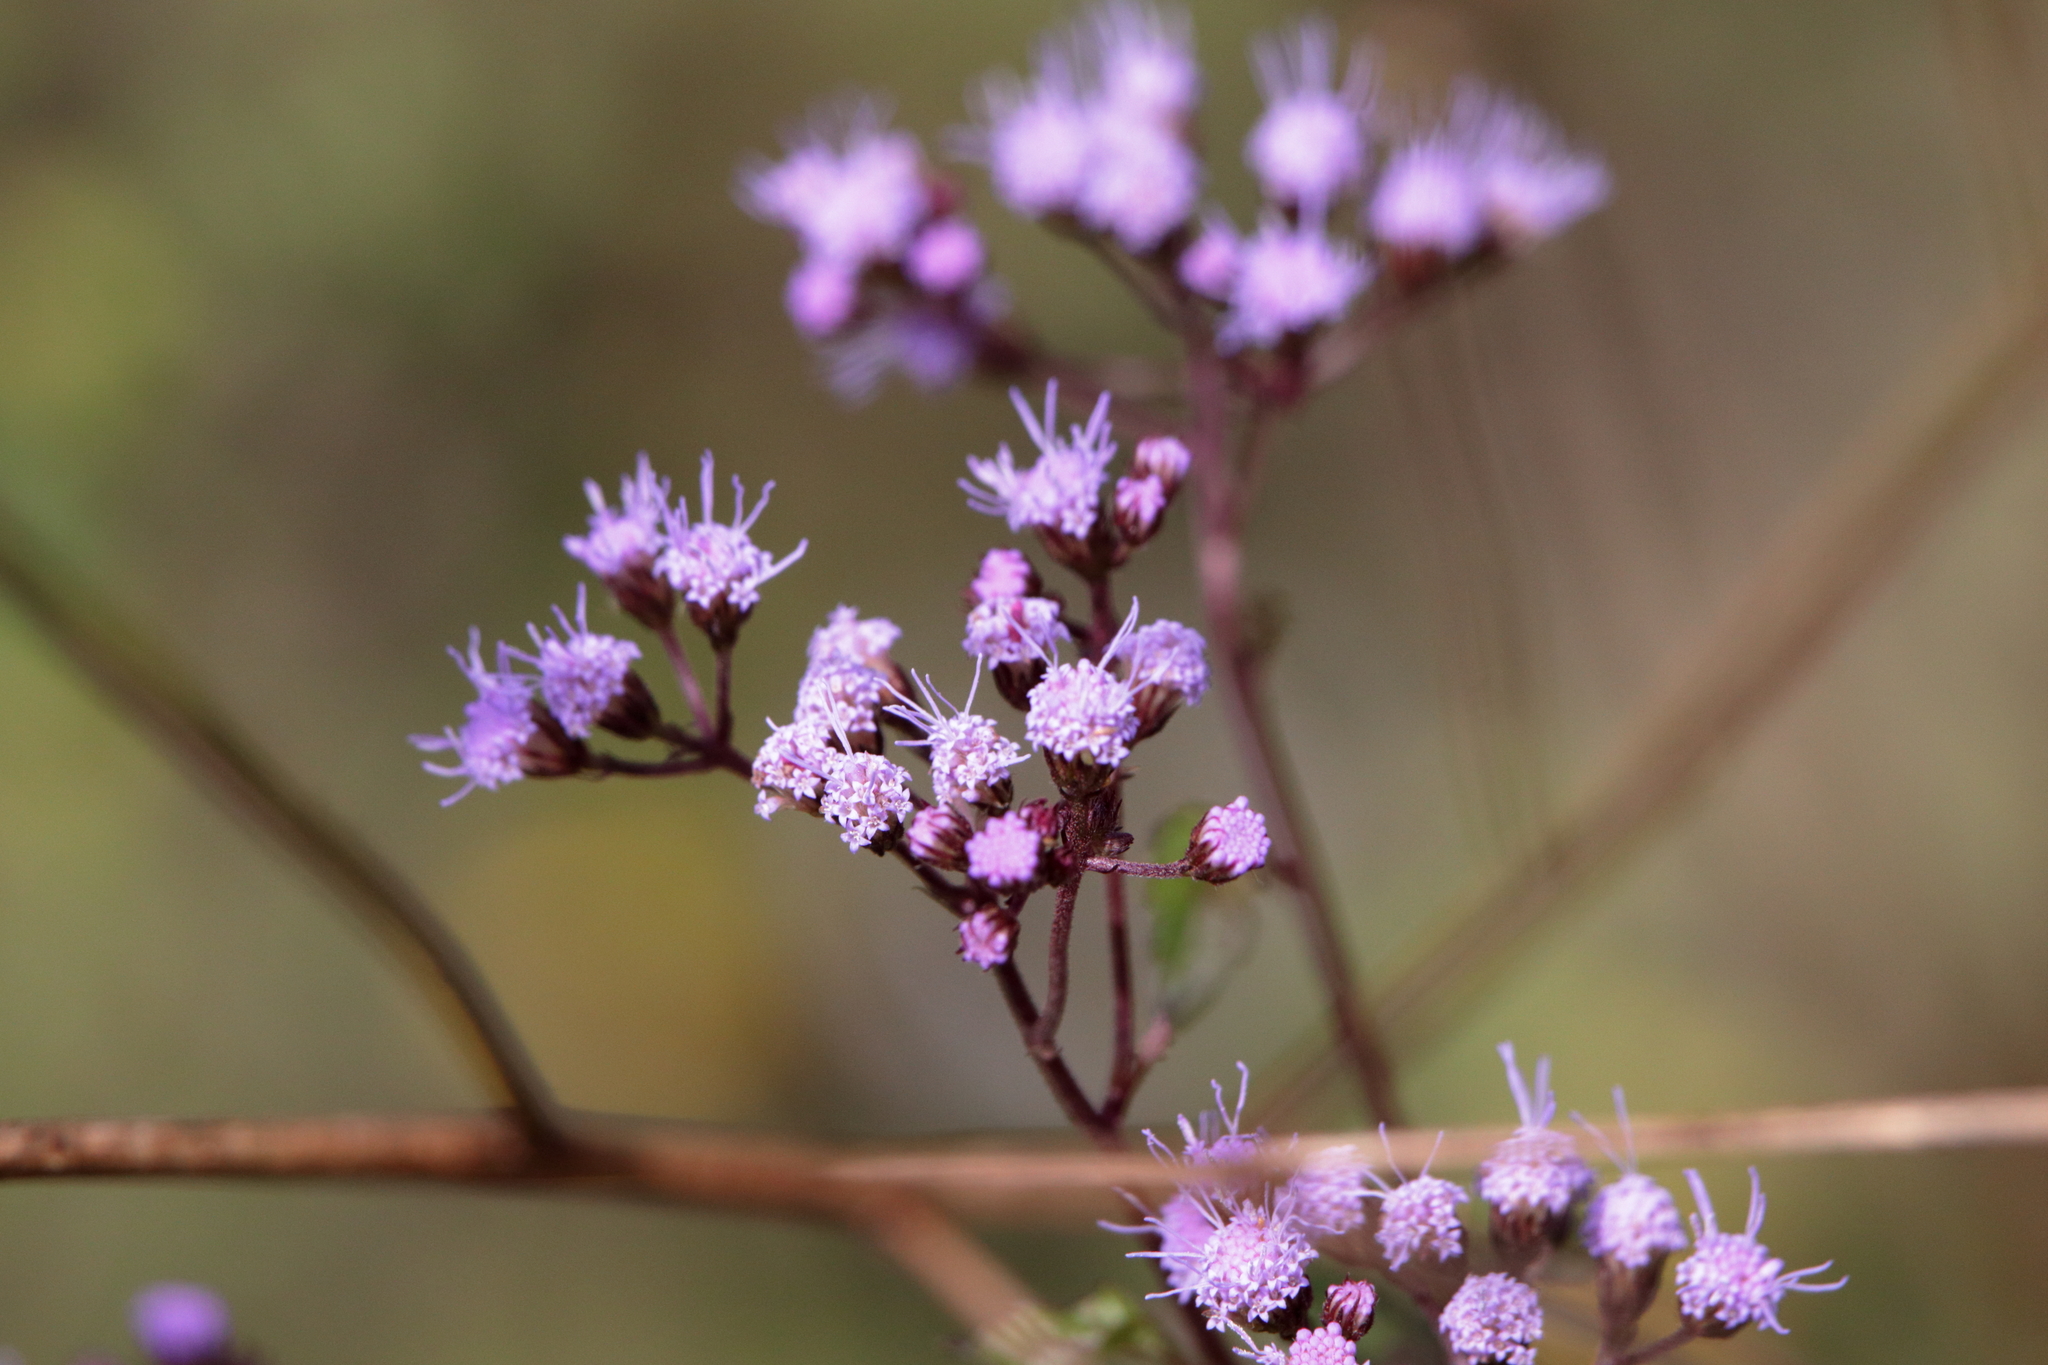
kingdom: Plantae
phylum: Tracheophyta
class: Magnoliopsida
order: Asterales
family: Asteraceae
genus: Conoclinium
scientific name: Conoclinium coelestinum
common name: Blue mistflower
